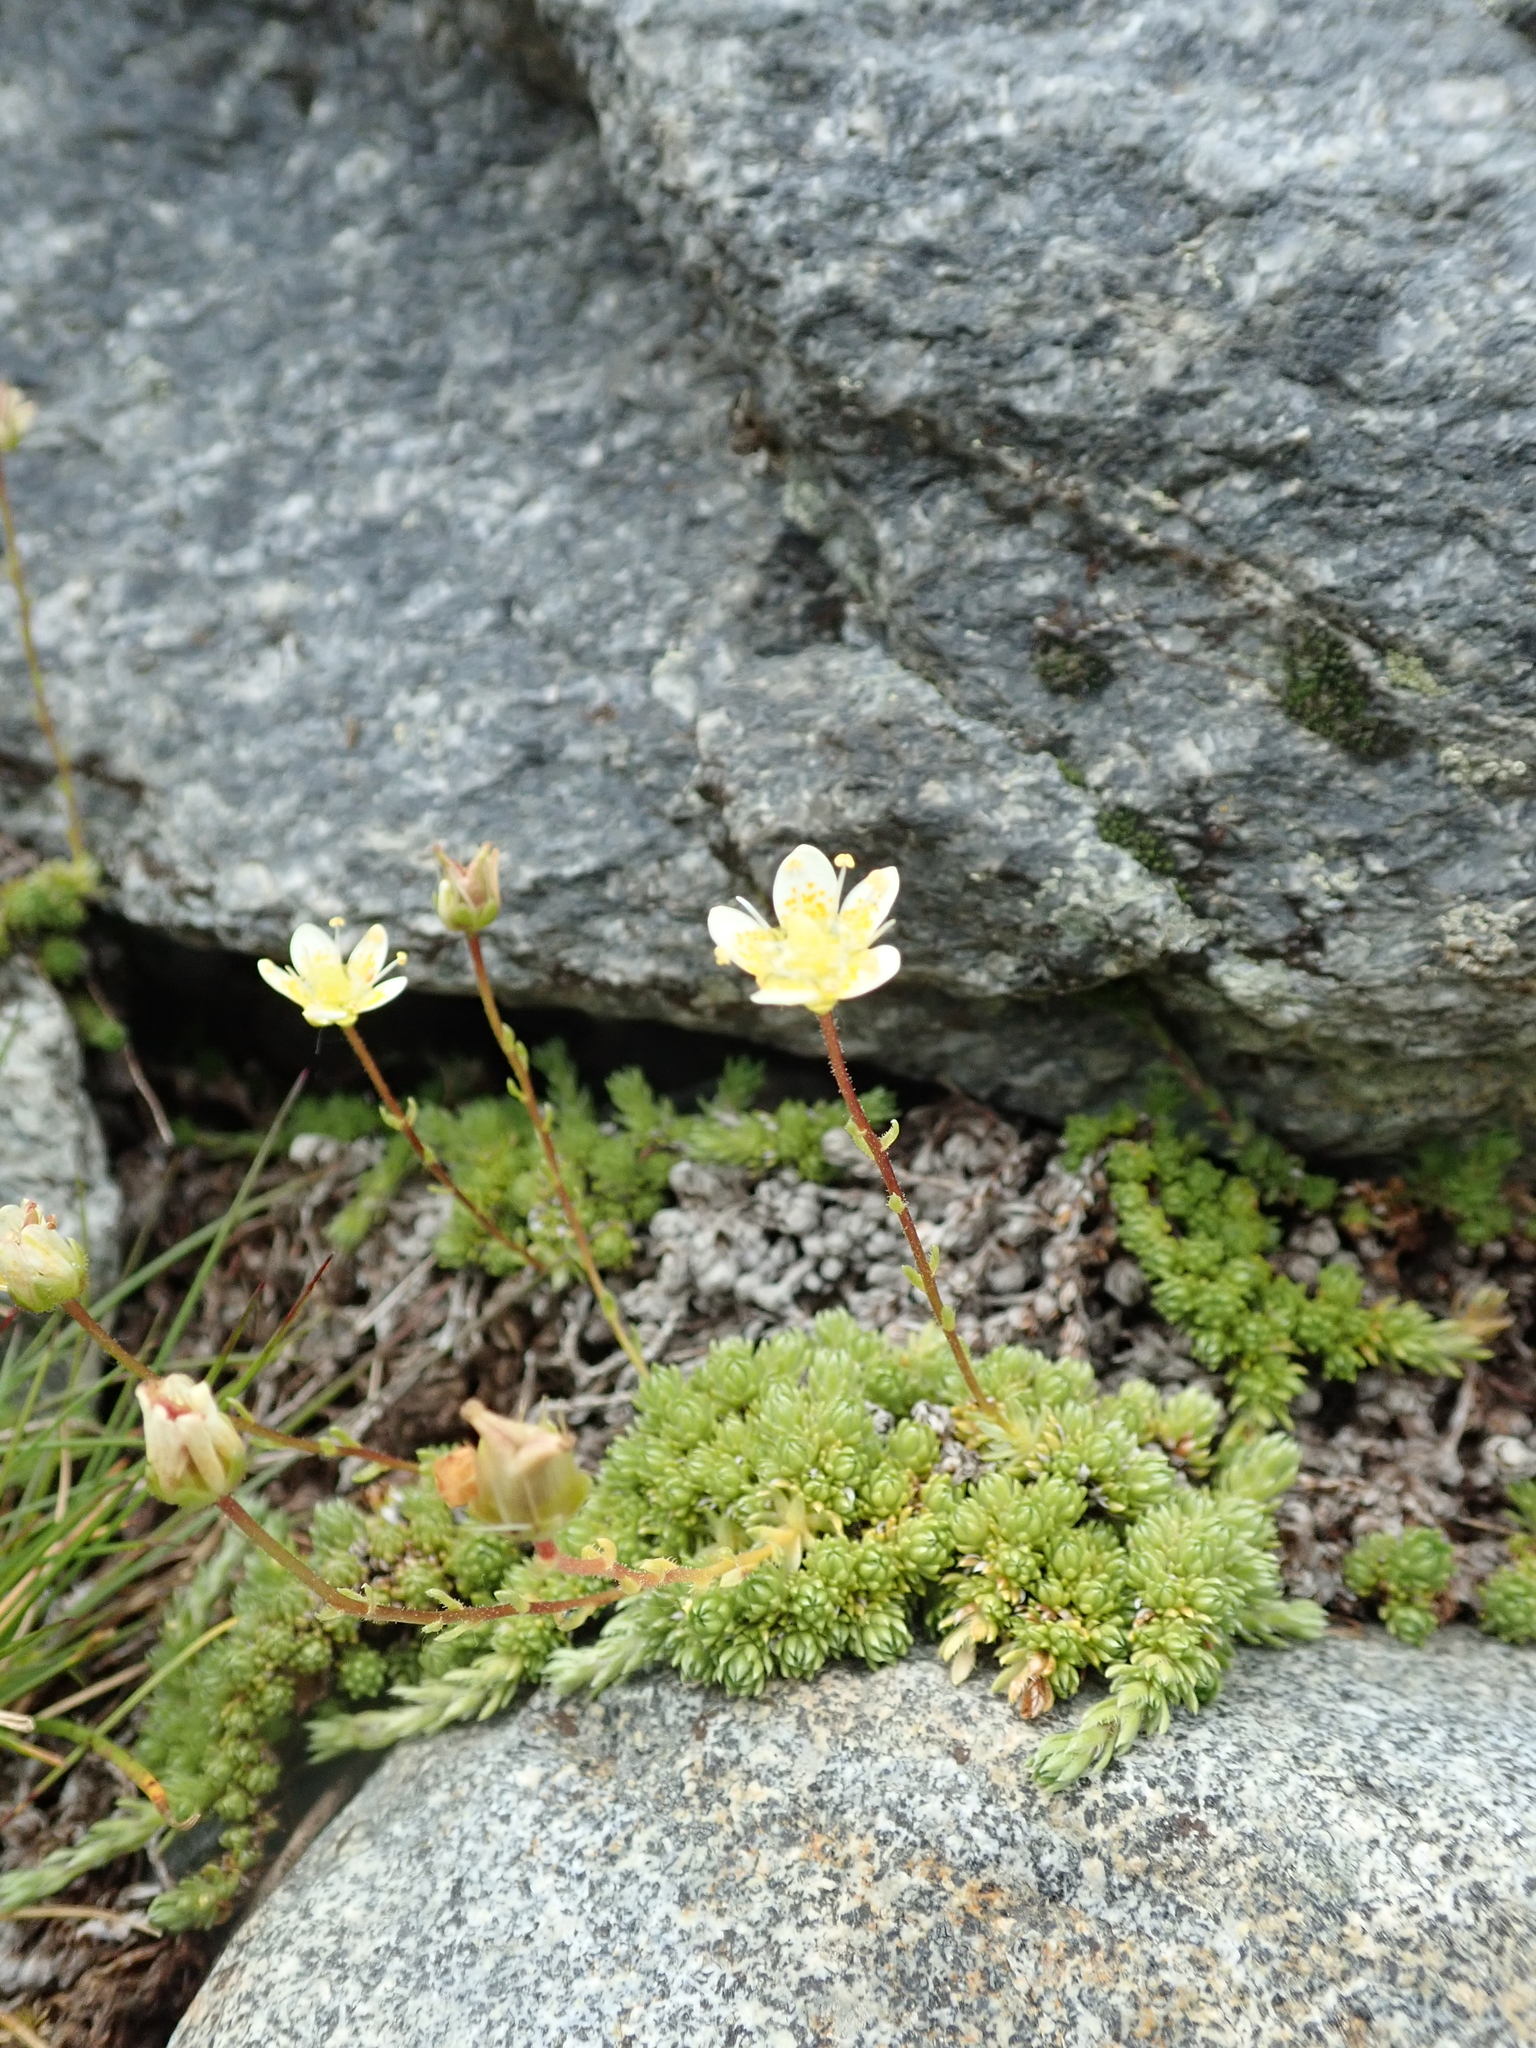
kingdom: Plantae
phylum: Tracheophyta
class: Magnoliopsida
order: Saxifragales
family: Saxifragaceae
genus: Saxifraga
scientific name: Saxifraga bryoides
